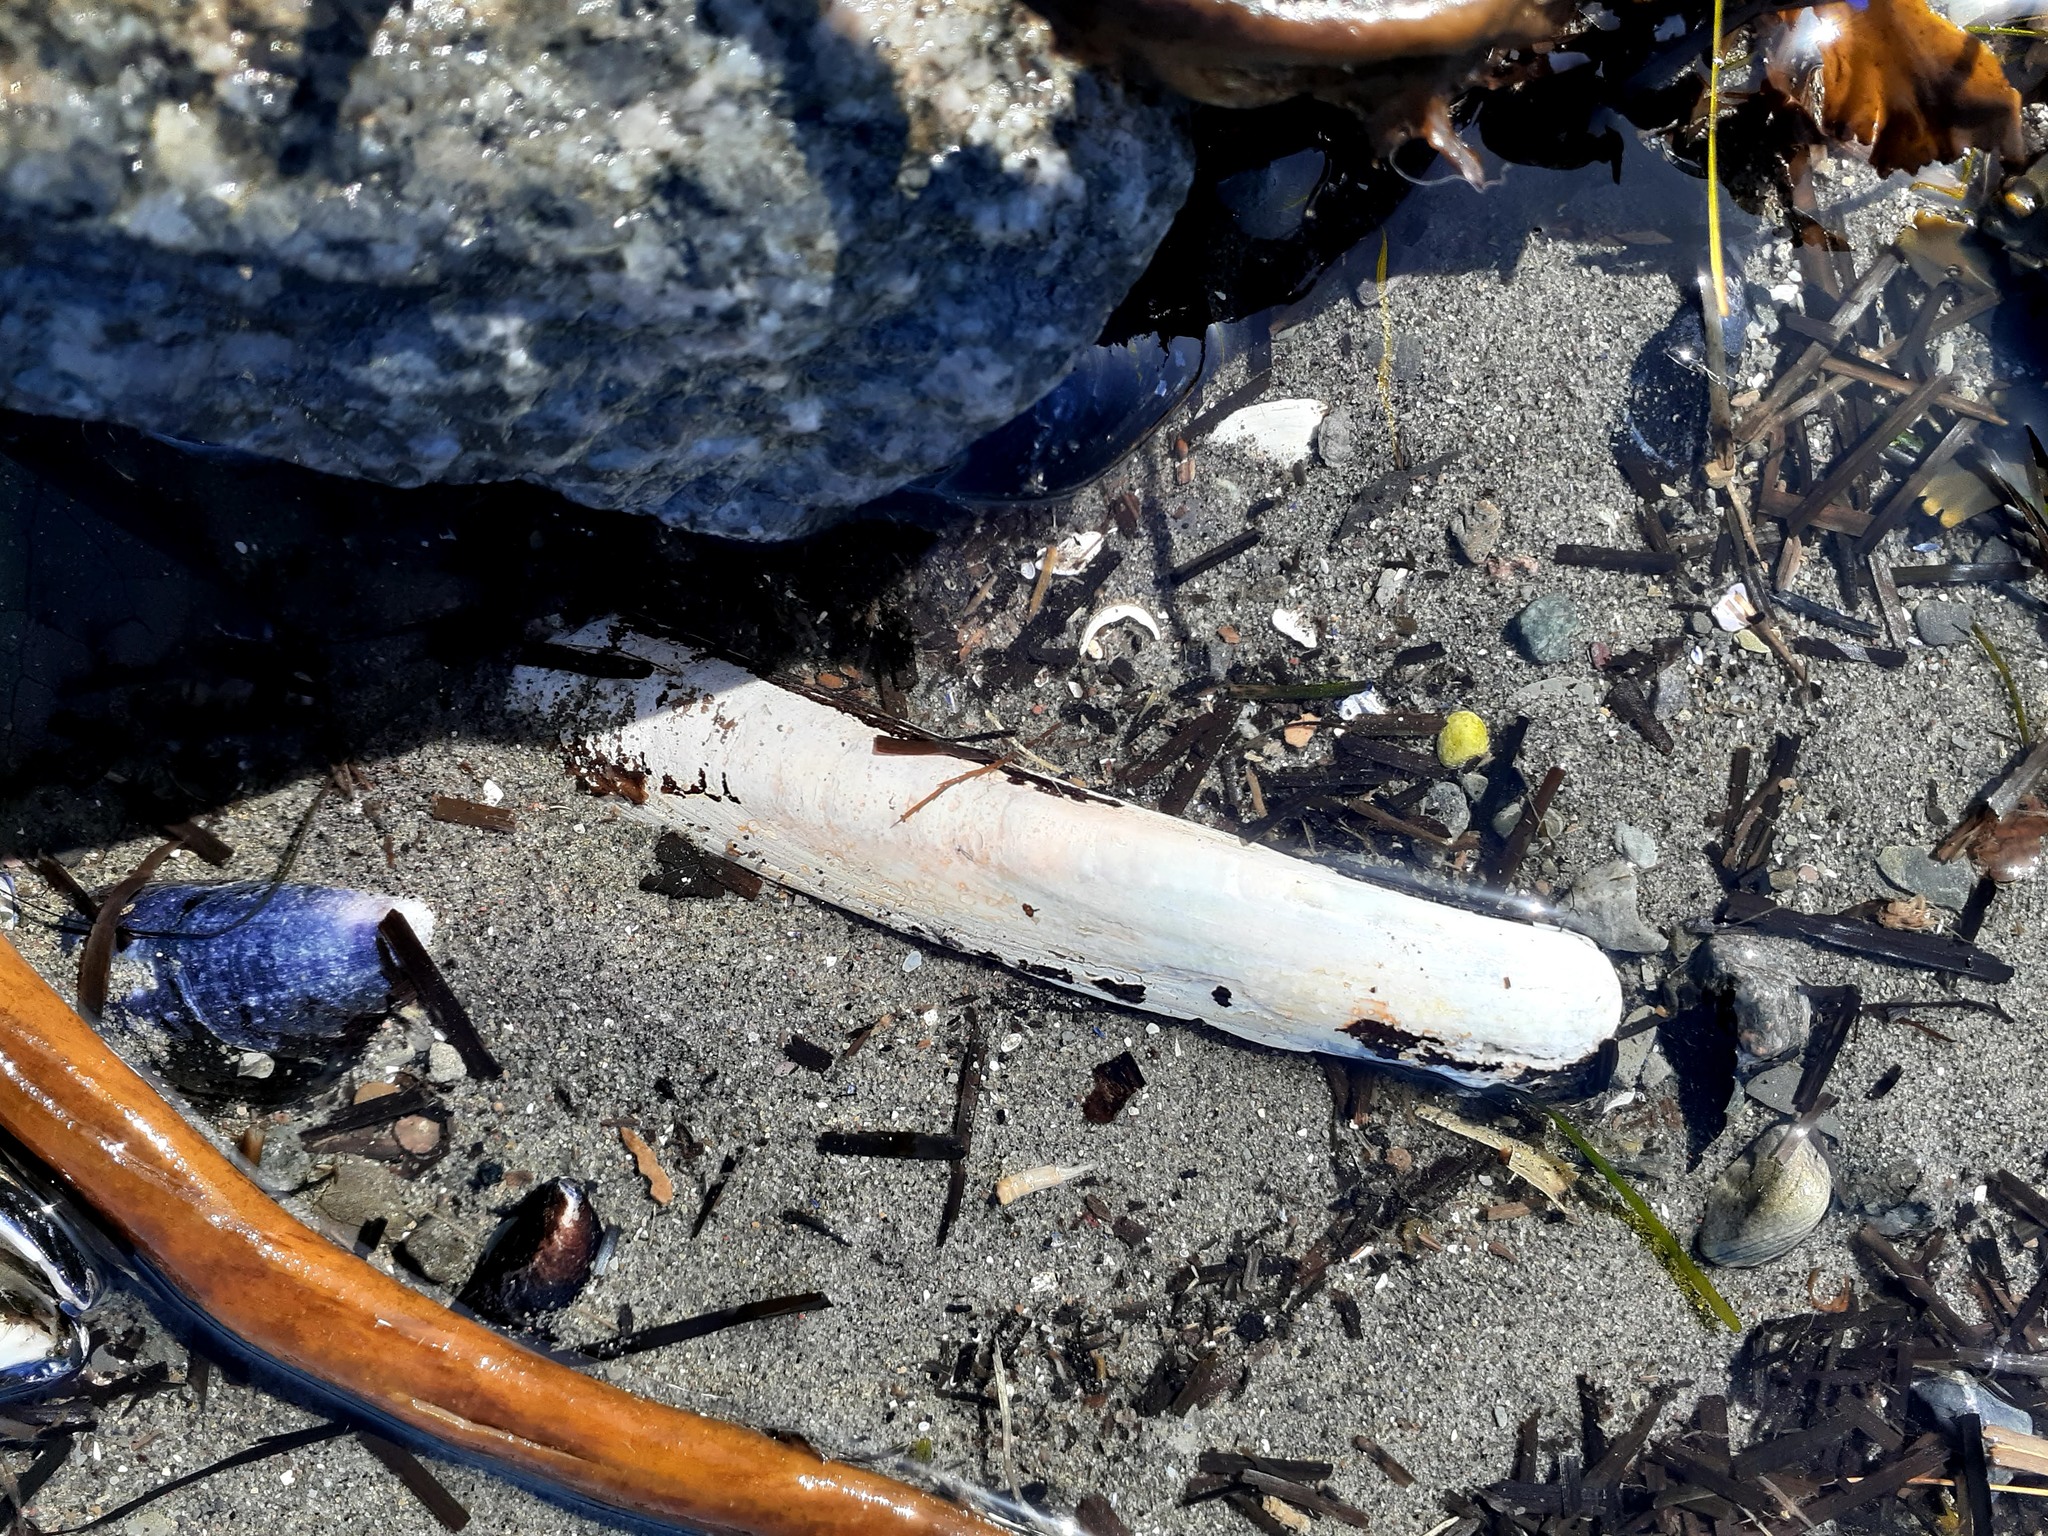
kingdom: Animalia
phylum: Mollusca
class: Bivalvia
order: Adapedonta
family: Pharidae
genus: Ensis
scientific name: Ensis leei
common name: American jack knife clam
